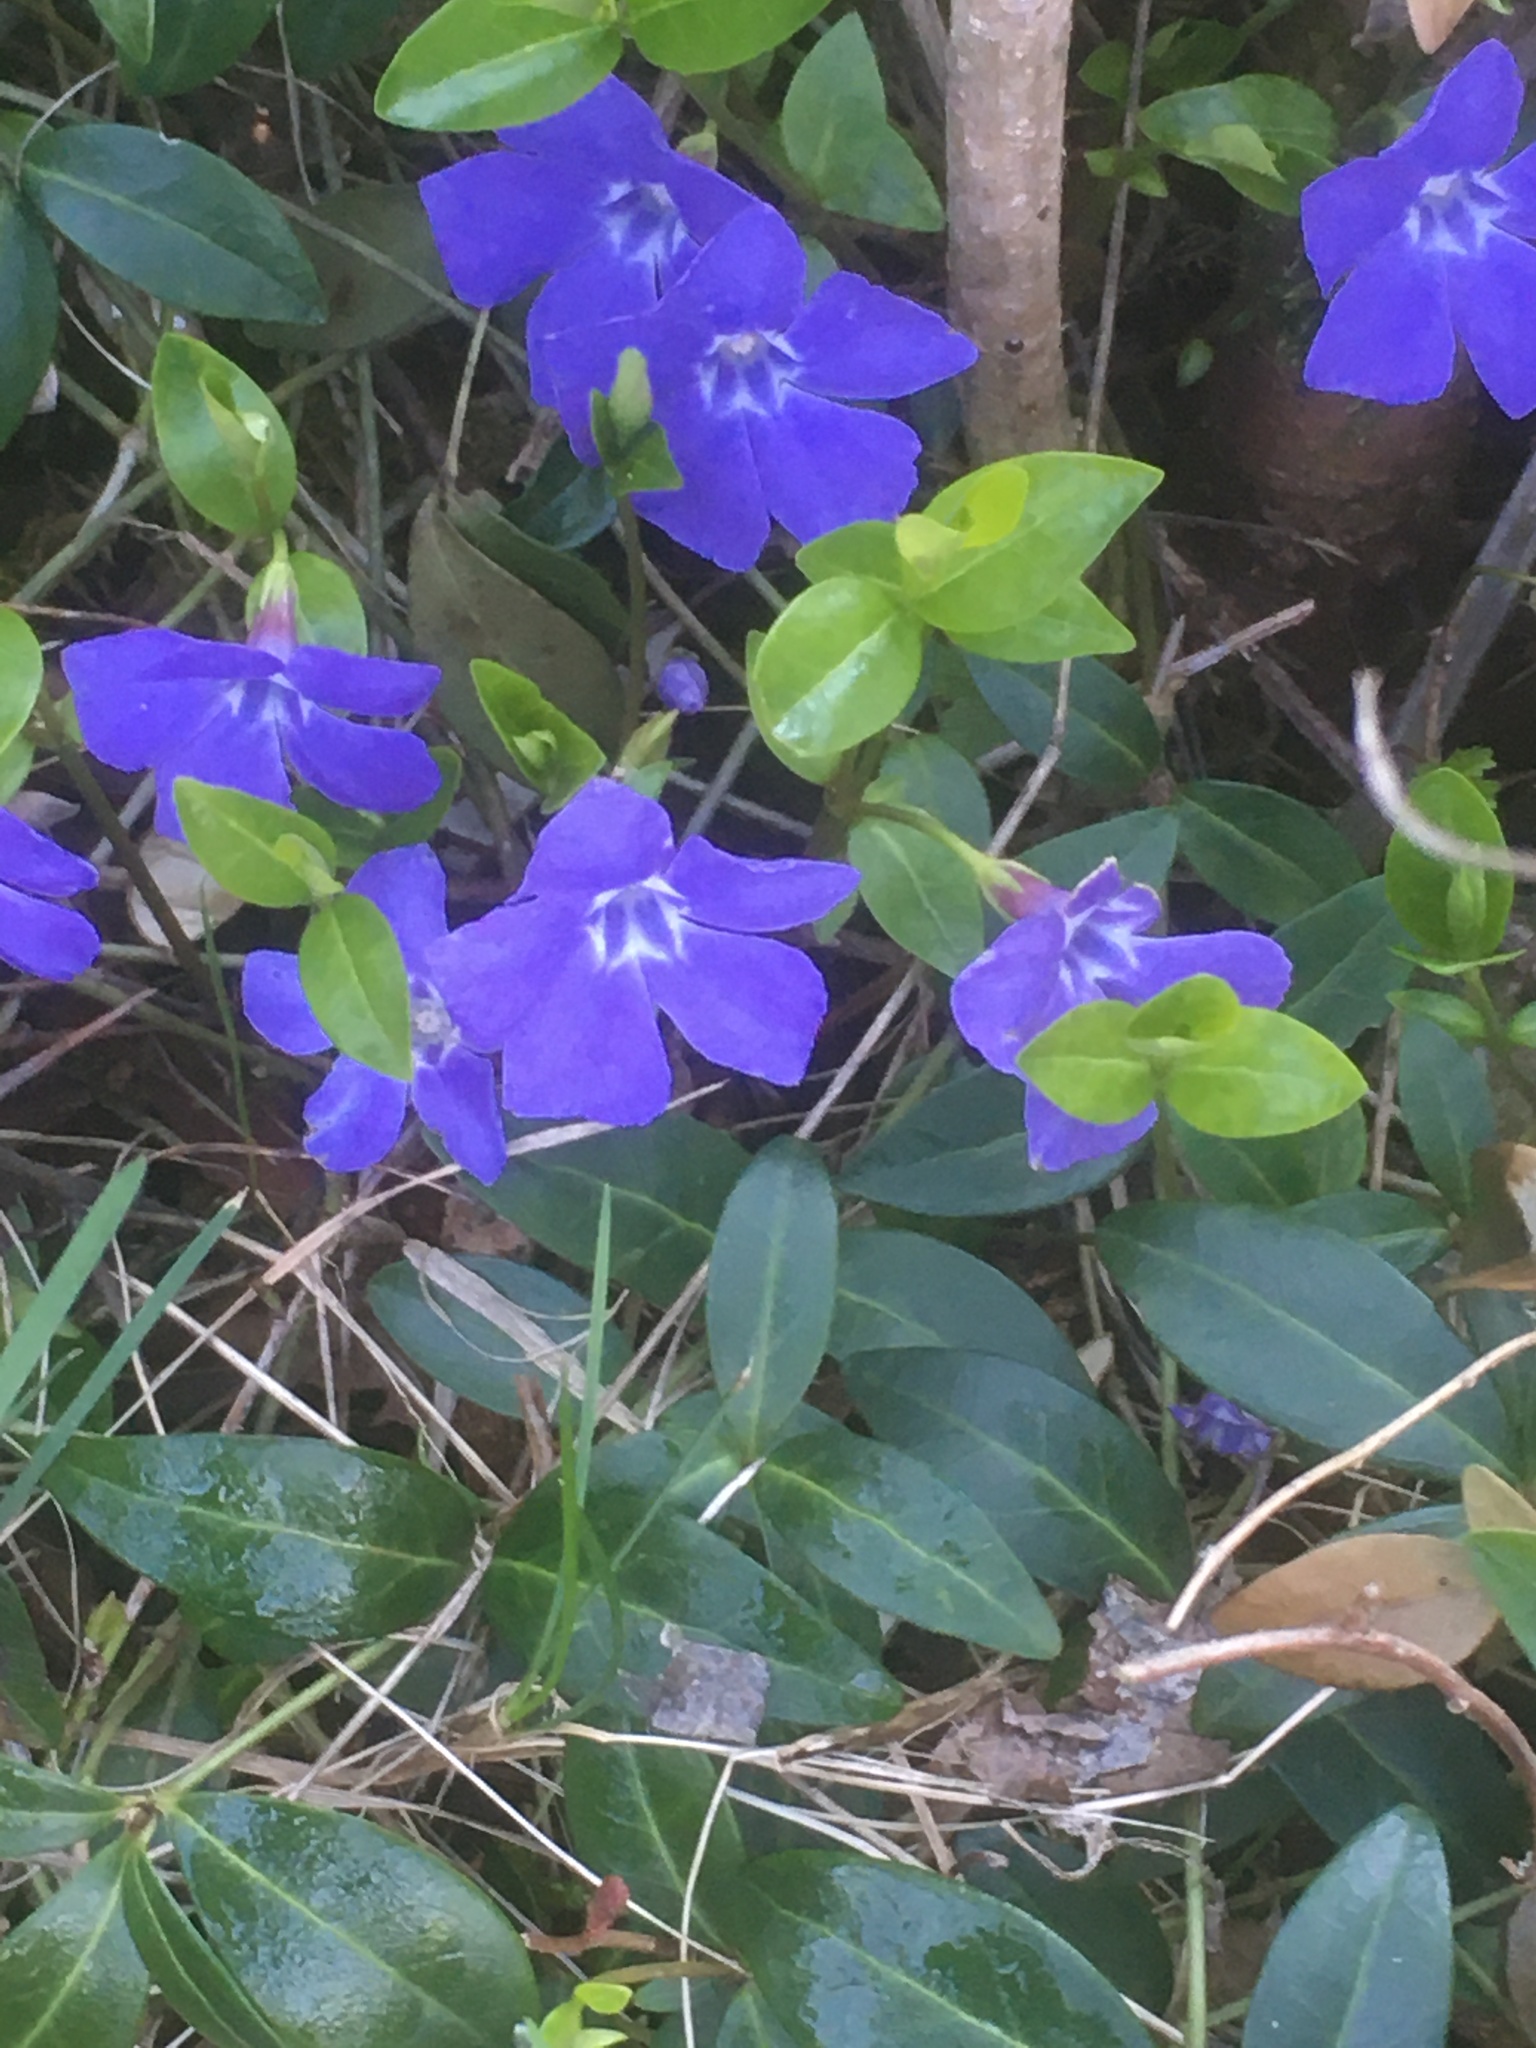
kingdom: Plantae
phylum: Tracheophyta
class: Magnoliopsida
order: Gentianales
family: Apocynaceae
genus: Vinca
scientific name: Vinca minor
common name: Lesser periwinkle
